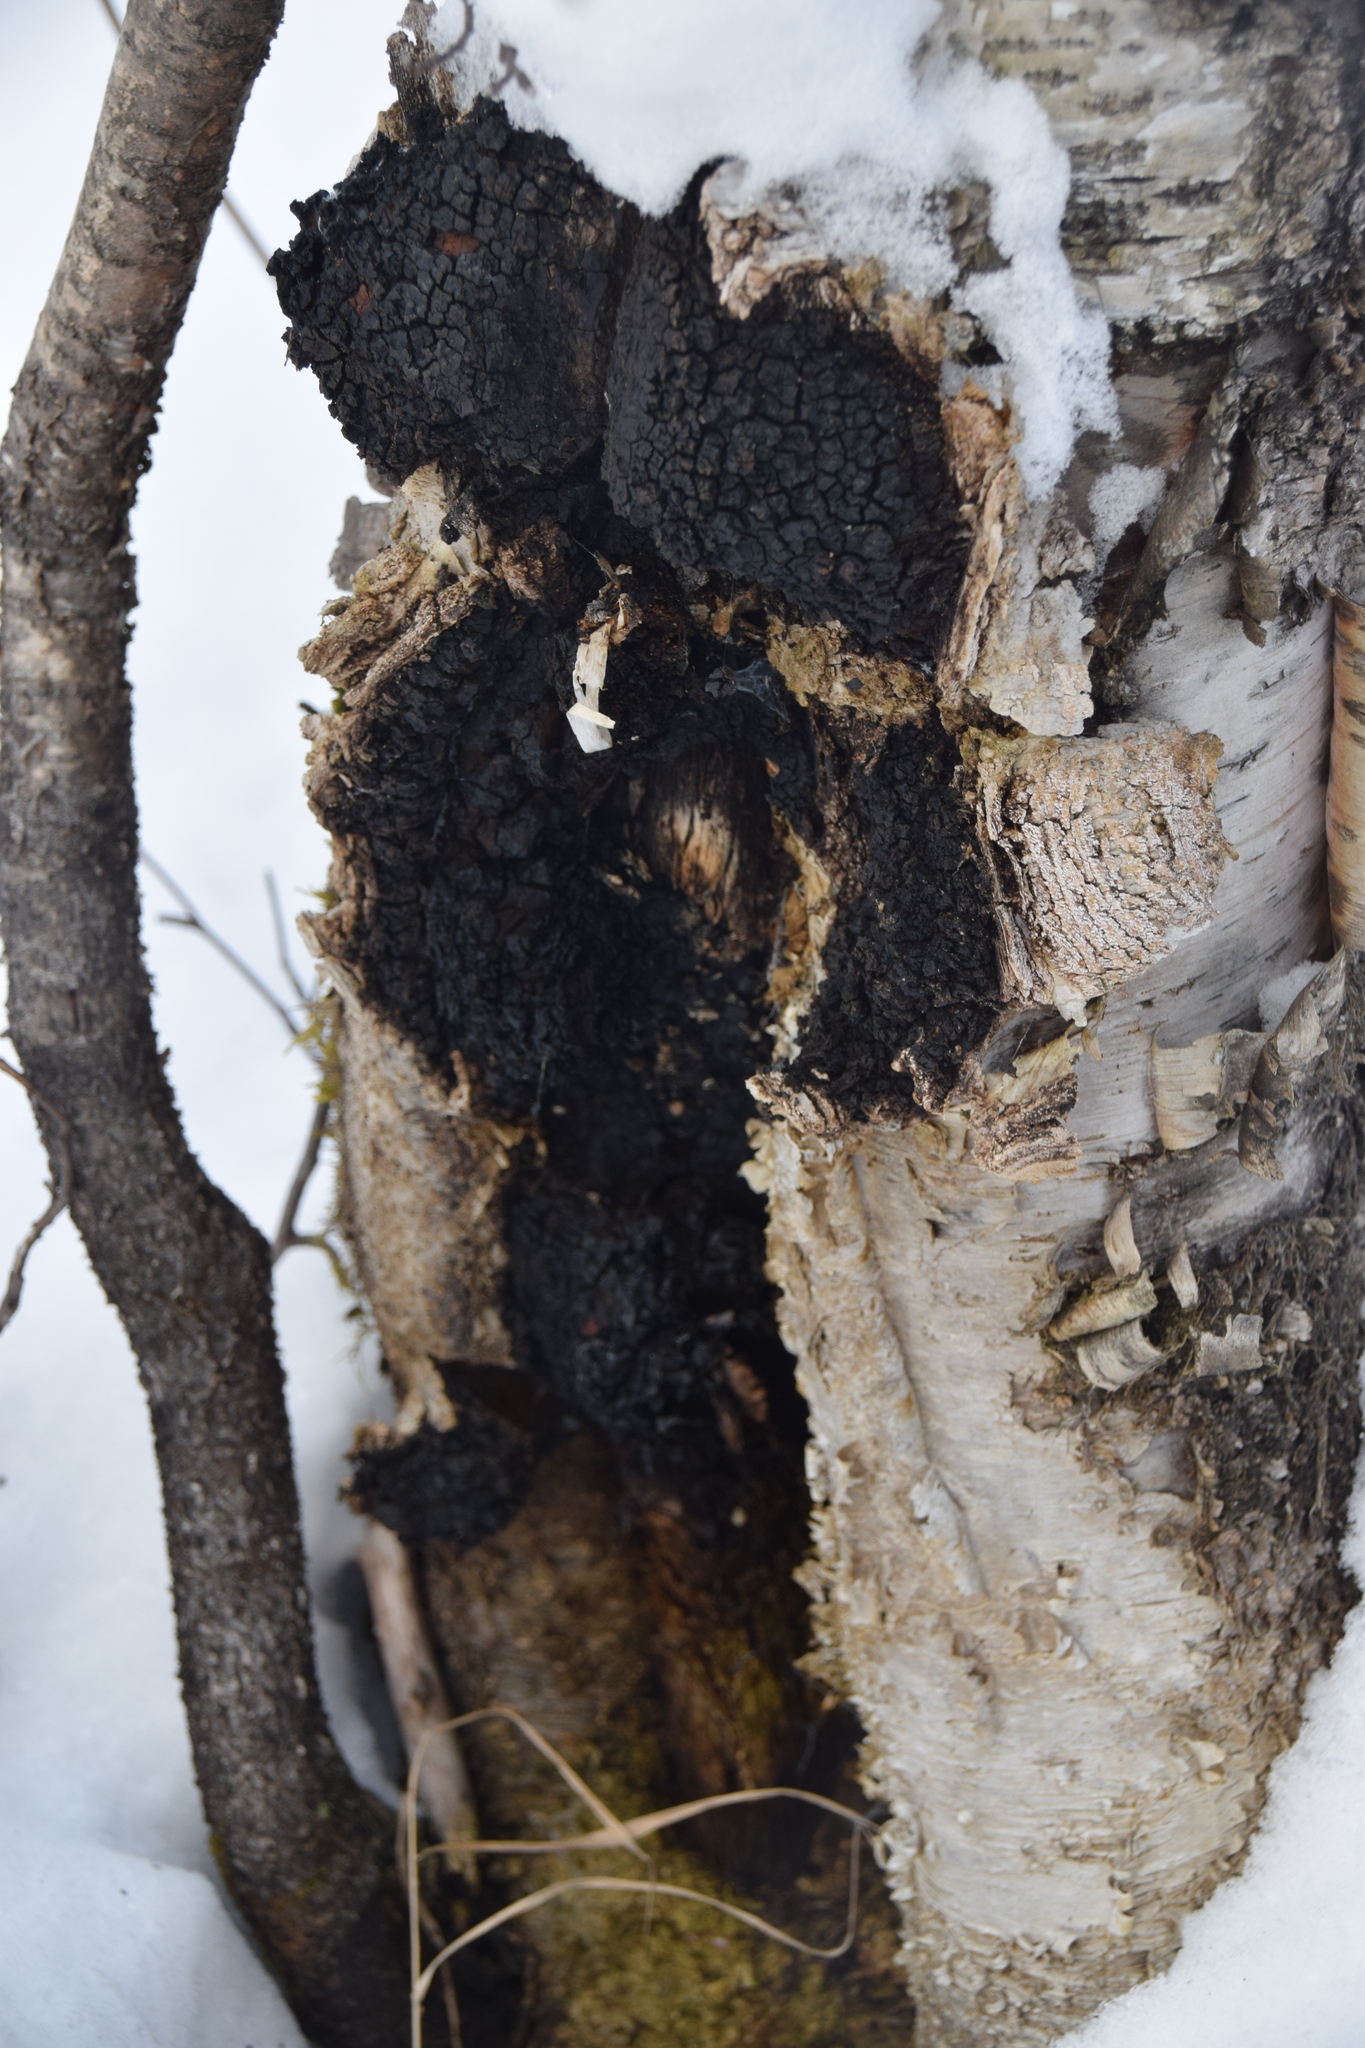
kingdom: Fungi
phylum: Basidiomycota
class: Agaricomycetes
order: Hymenochaetales
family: Hymenochaetaceae
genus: Inonotus
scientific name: Inonotus obliquus
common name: Chaga
